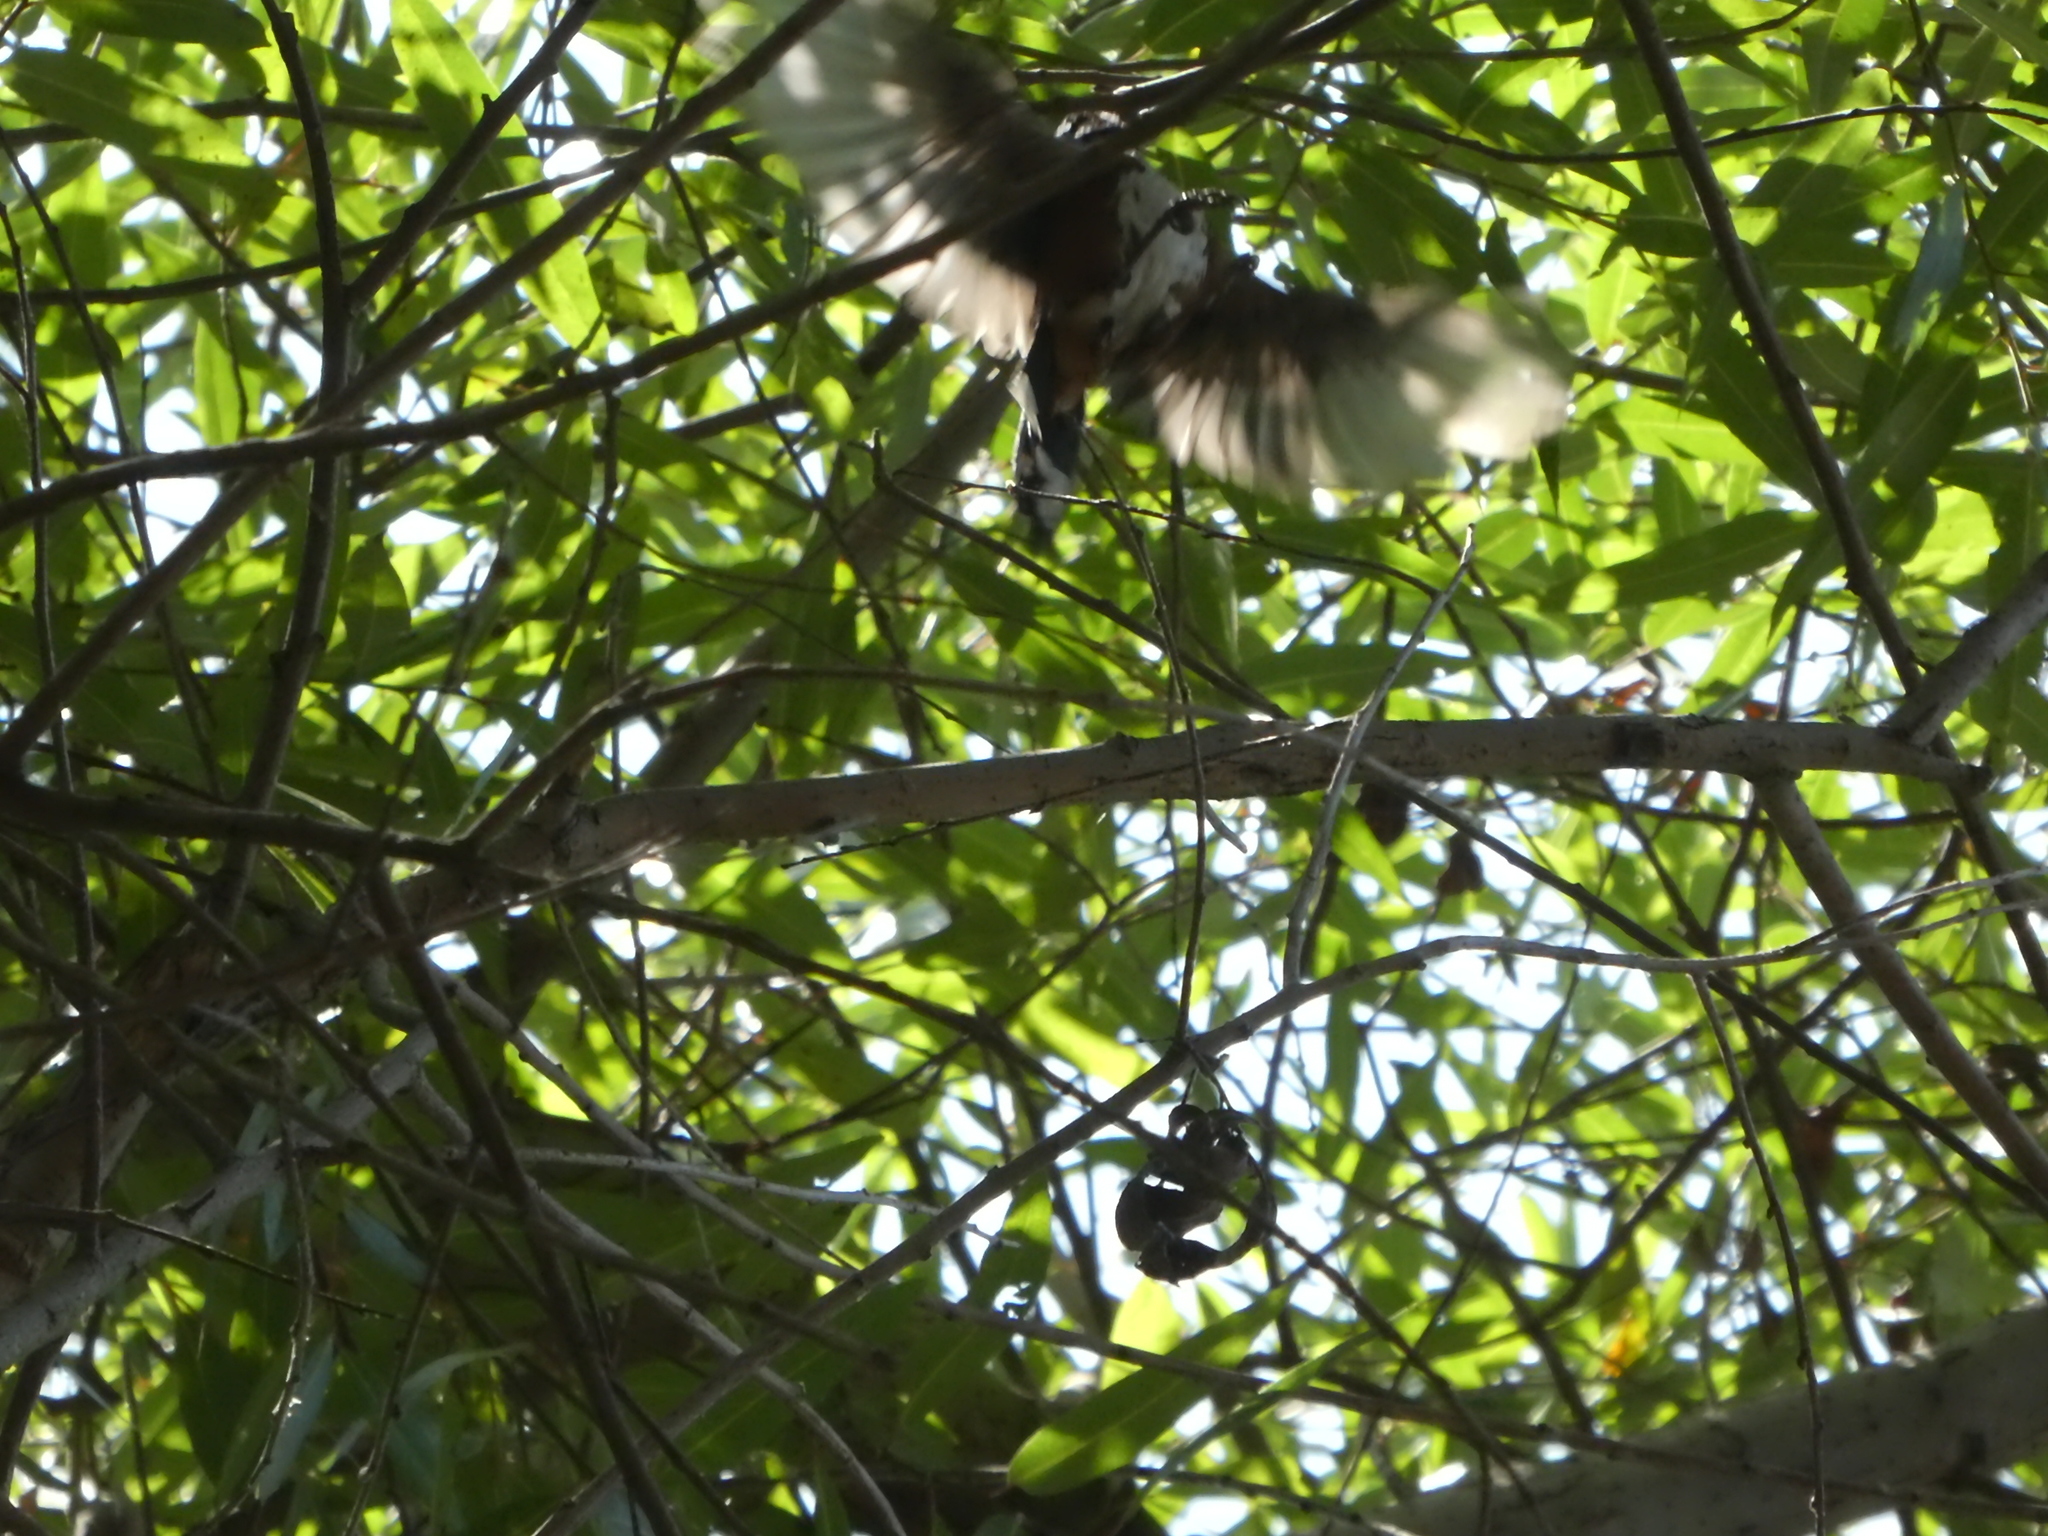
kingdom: Animalia
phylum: Chordata
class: Aves
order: Passeriformes
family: Passerellidae
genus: Pipilo
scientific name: Pipilo maculatus
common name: Spotted towhee
